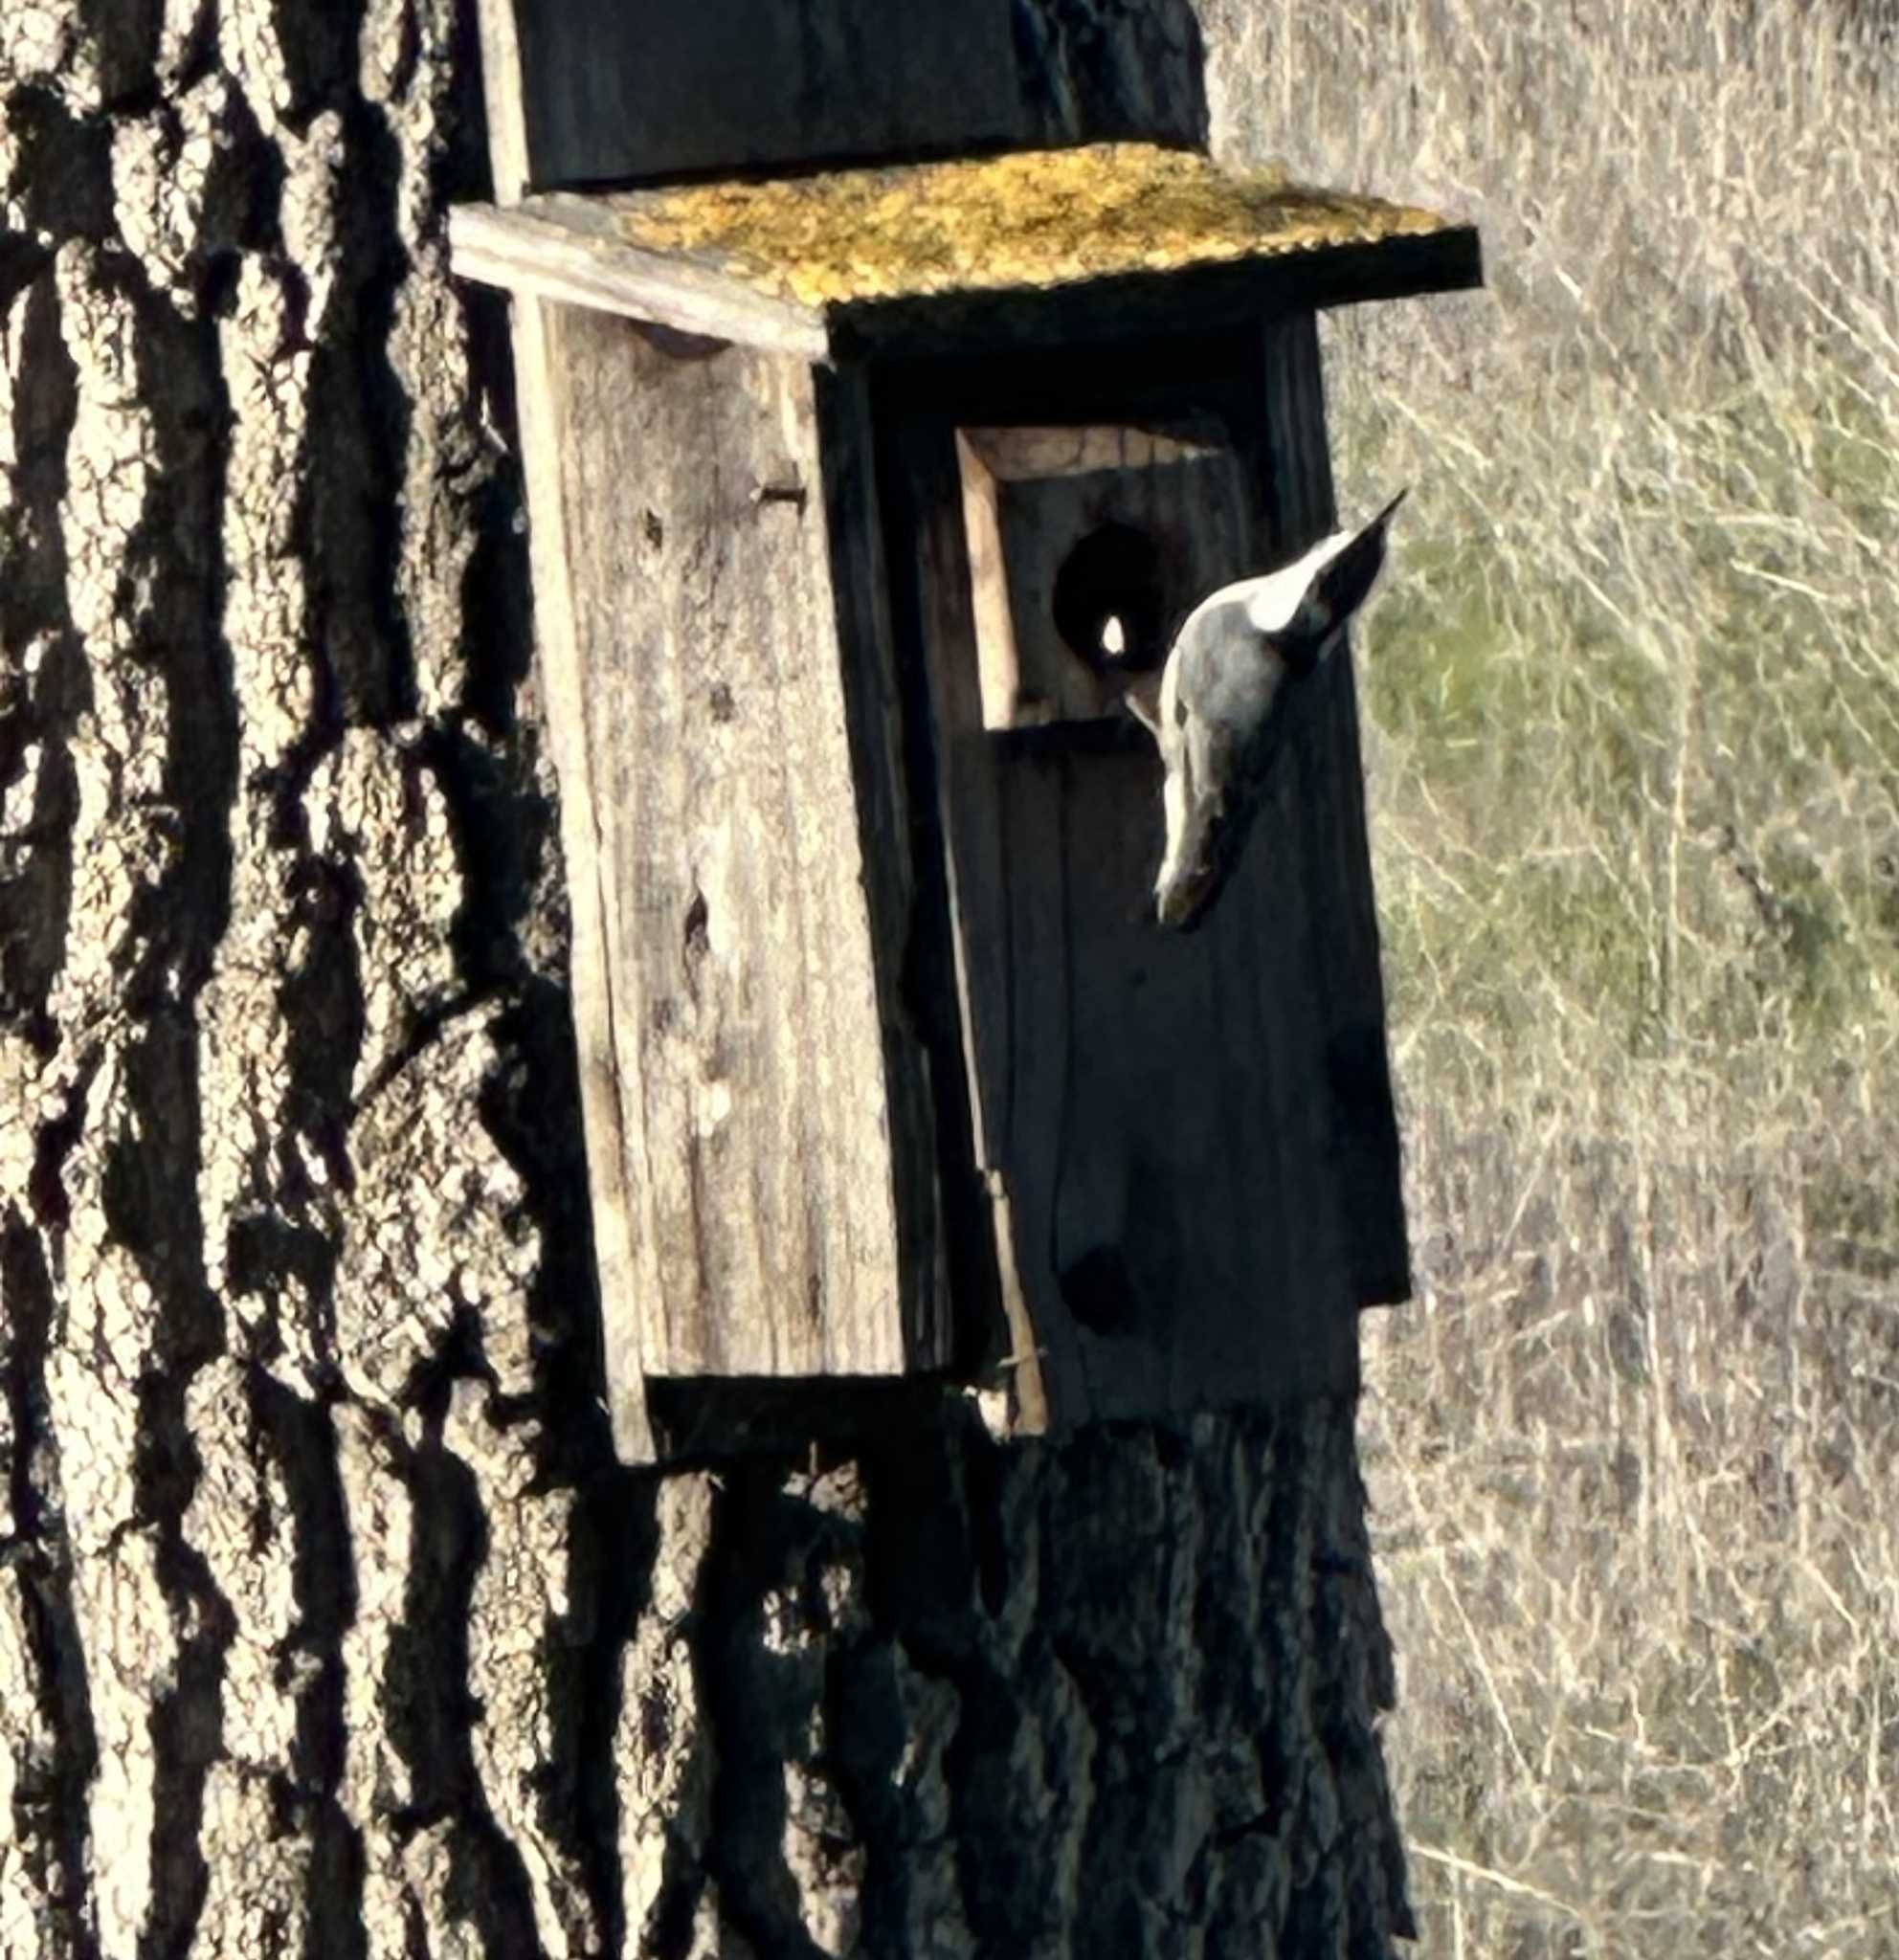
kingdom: Animalia
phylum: Chordata
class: Aves
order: Passeriformes
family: Sittidae
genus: Sitta
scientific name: Sitta carolinensis
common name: White-breasted nuthatch
